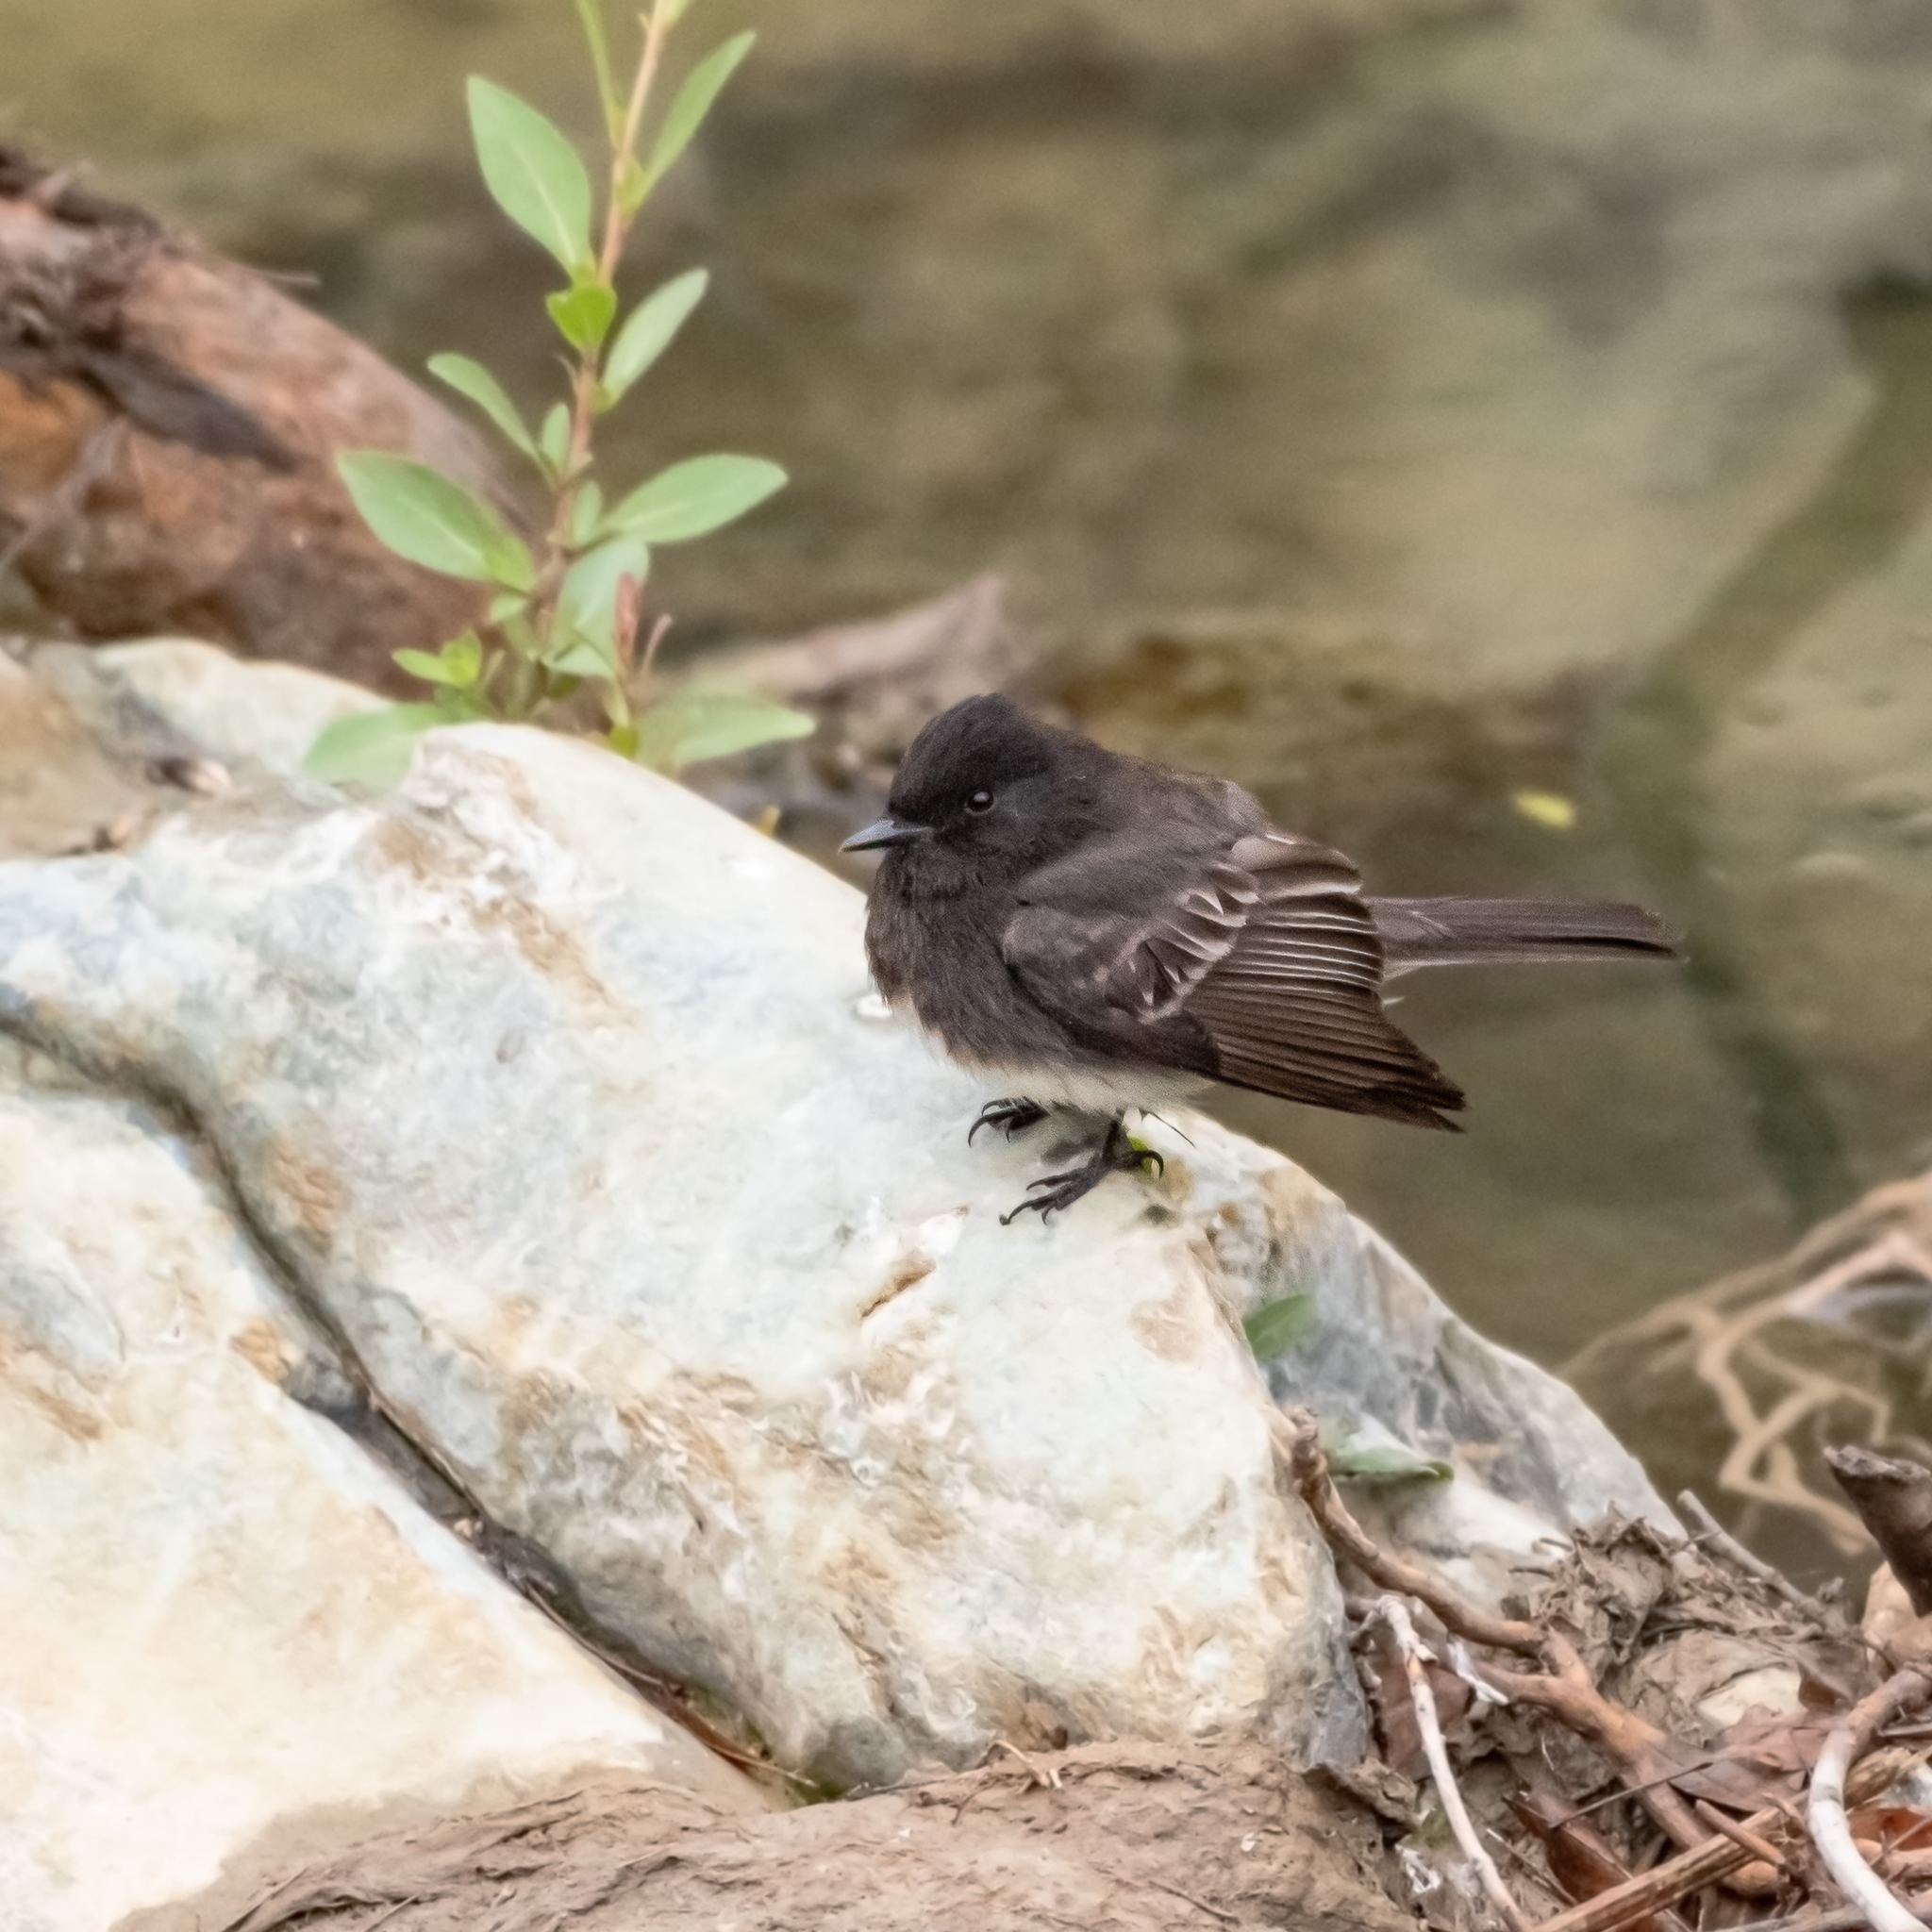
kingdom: Animalia
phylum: Chordata
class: Aves
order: Passeriformes
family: Tyrannidae
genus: Sayornis
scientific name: Sayornis nigricans
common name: Black phoebe
